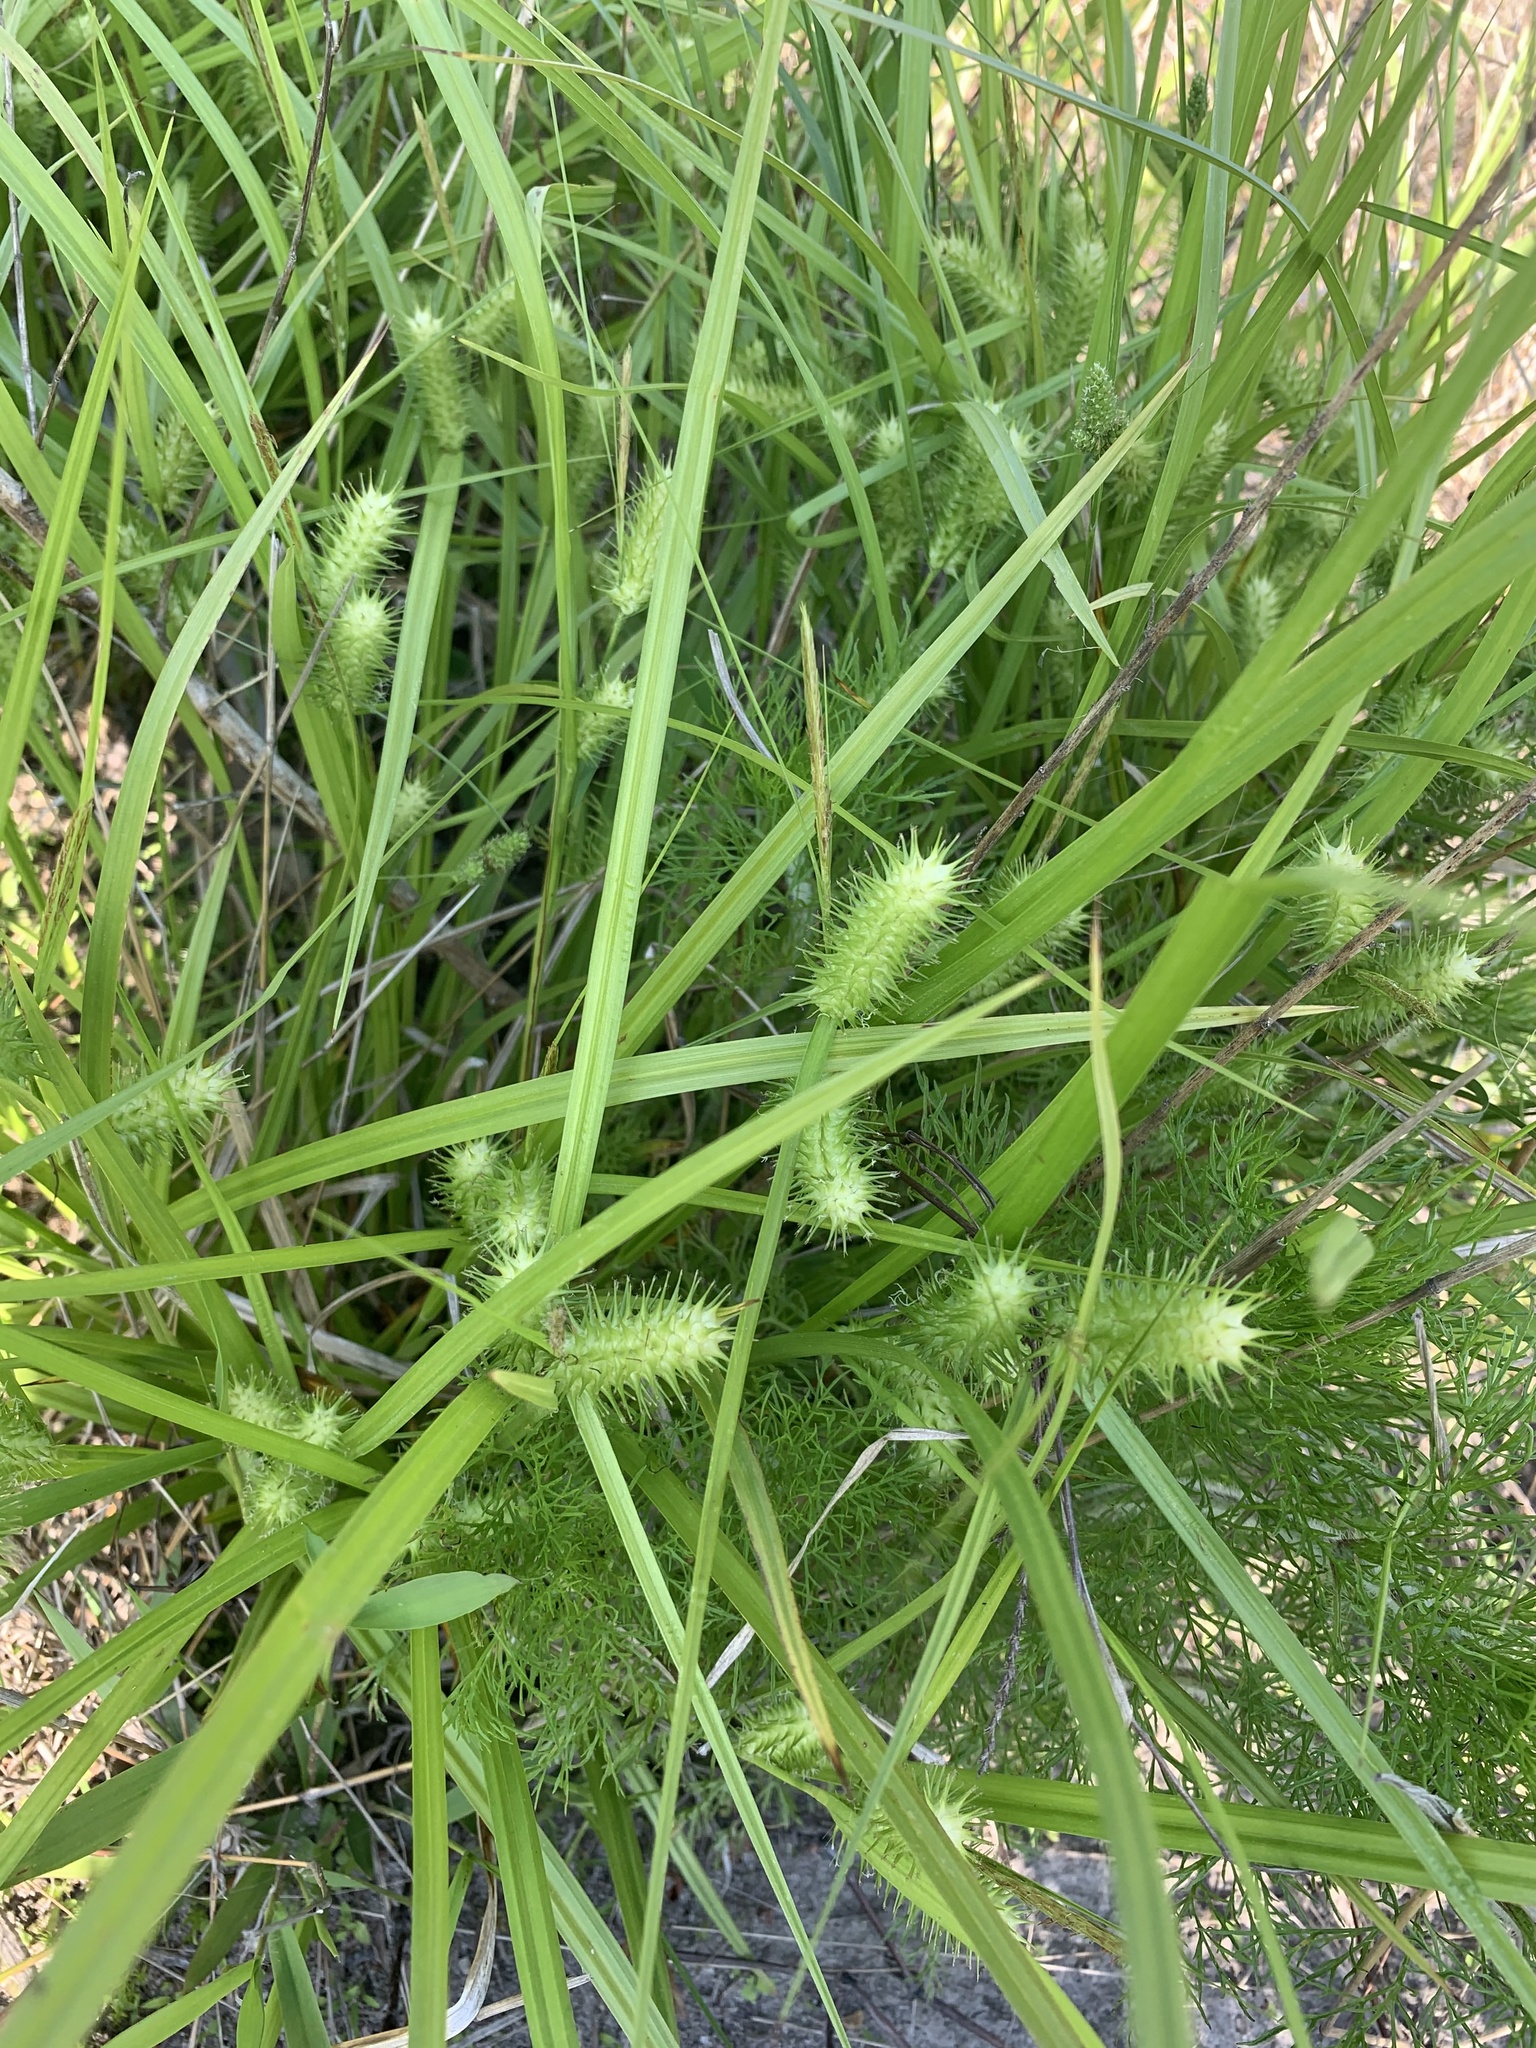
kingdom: Plantae
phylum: Tracheophyta
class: Liliopsida
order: Poales
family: Cyperaceae
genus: Carex
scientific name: Carex lurida
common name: Sallow sedge
